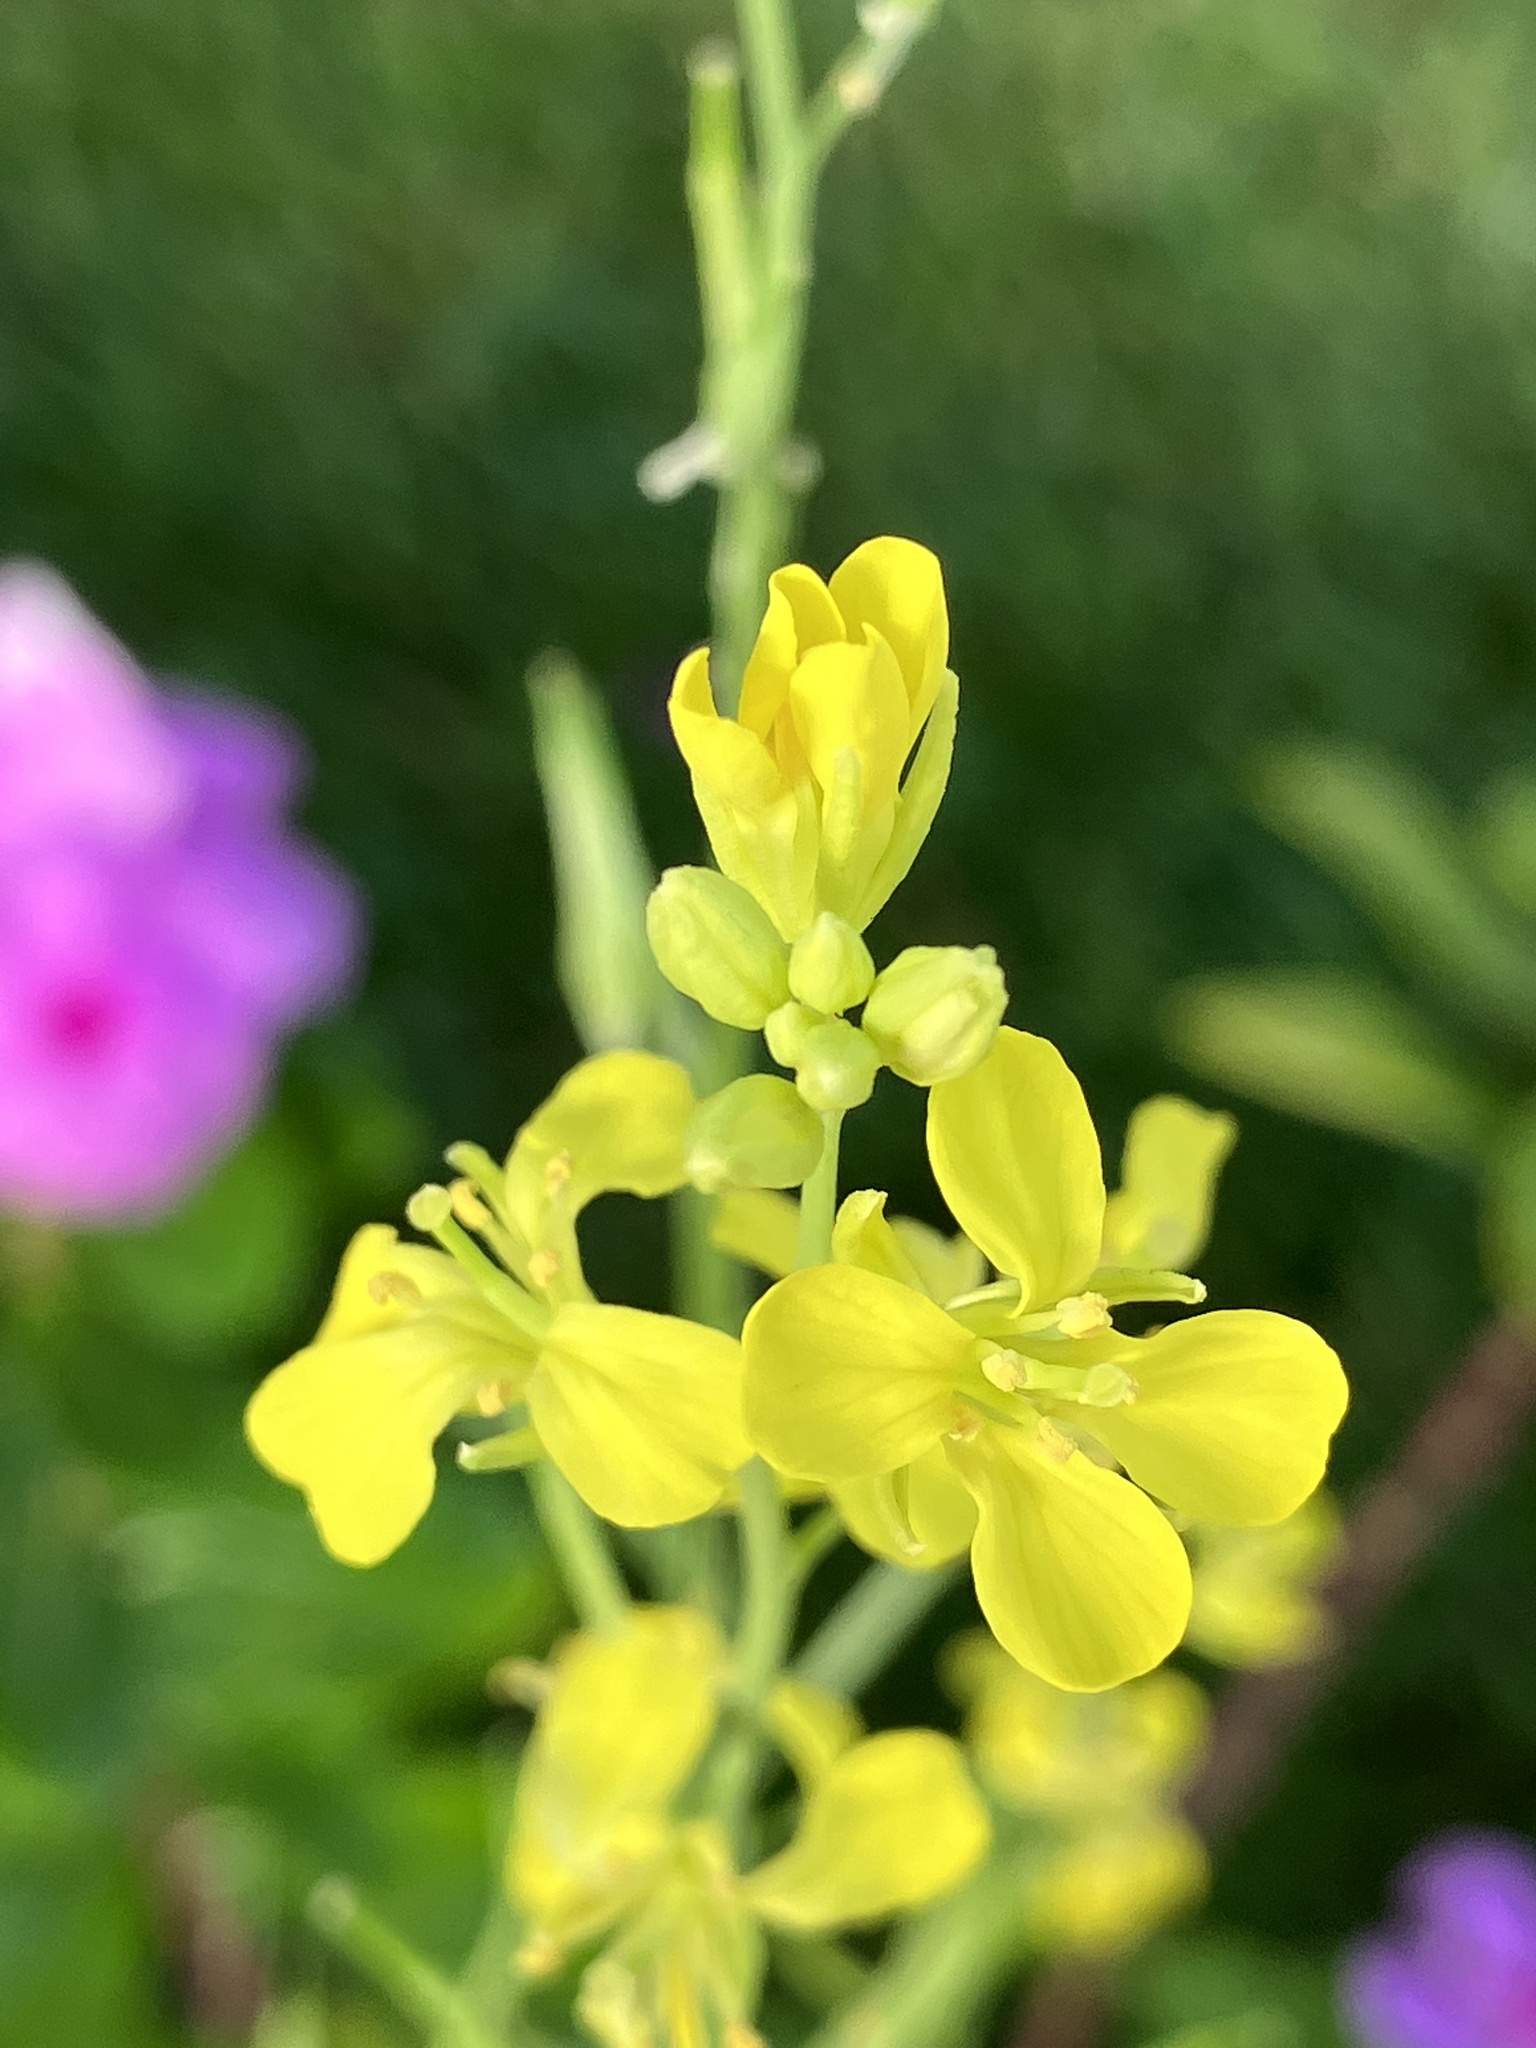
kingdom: Plantae
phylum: Tracheophyta
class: Magnoliopsida
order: Brassicales
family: Brassicaceae
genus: Brassica
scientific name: Brassica juncea
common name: Brown mustard
